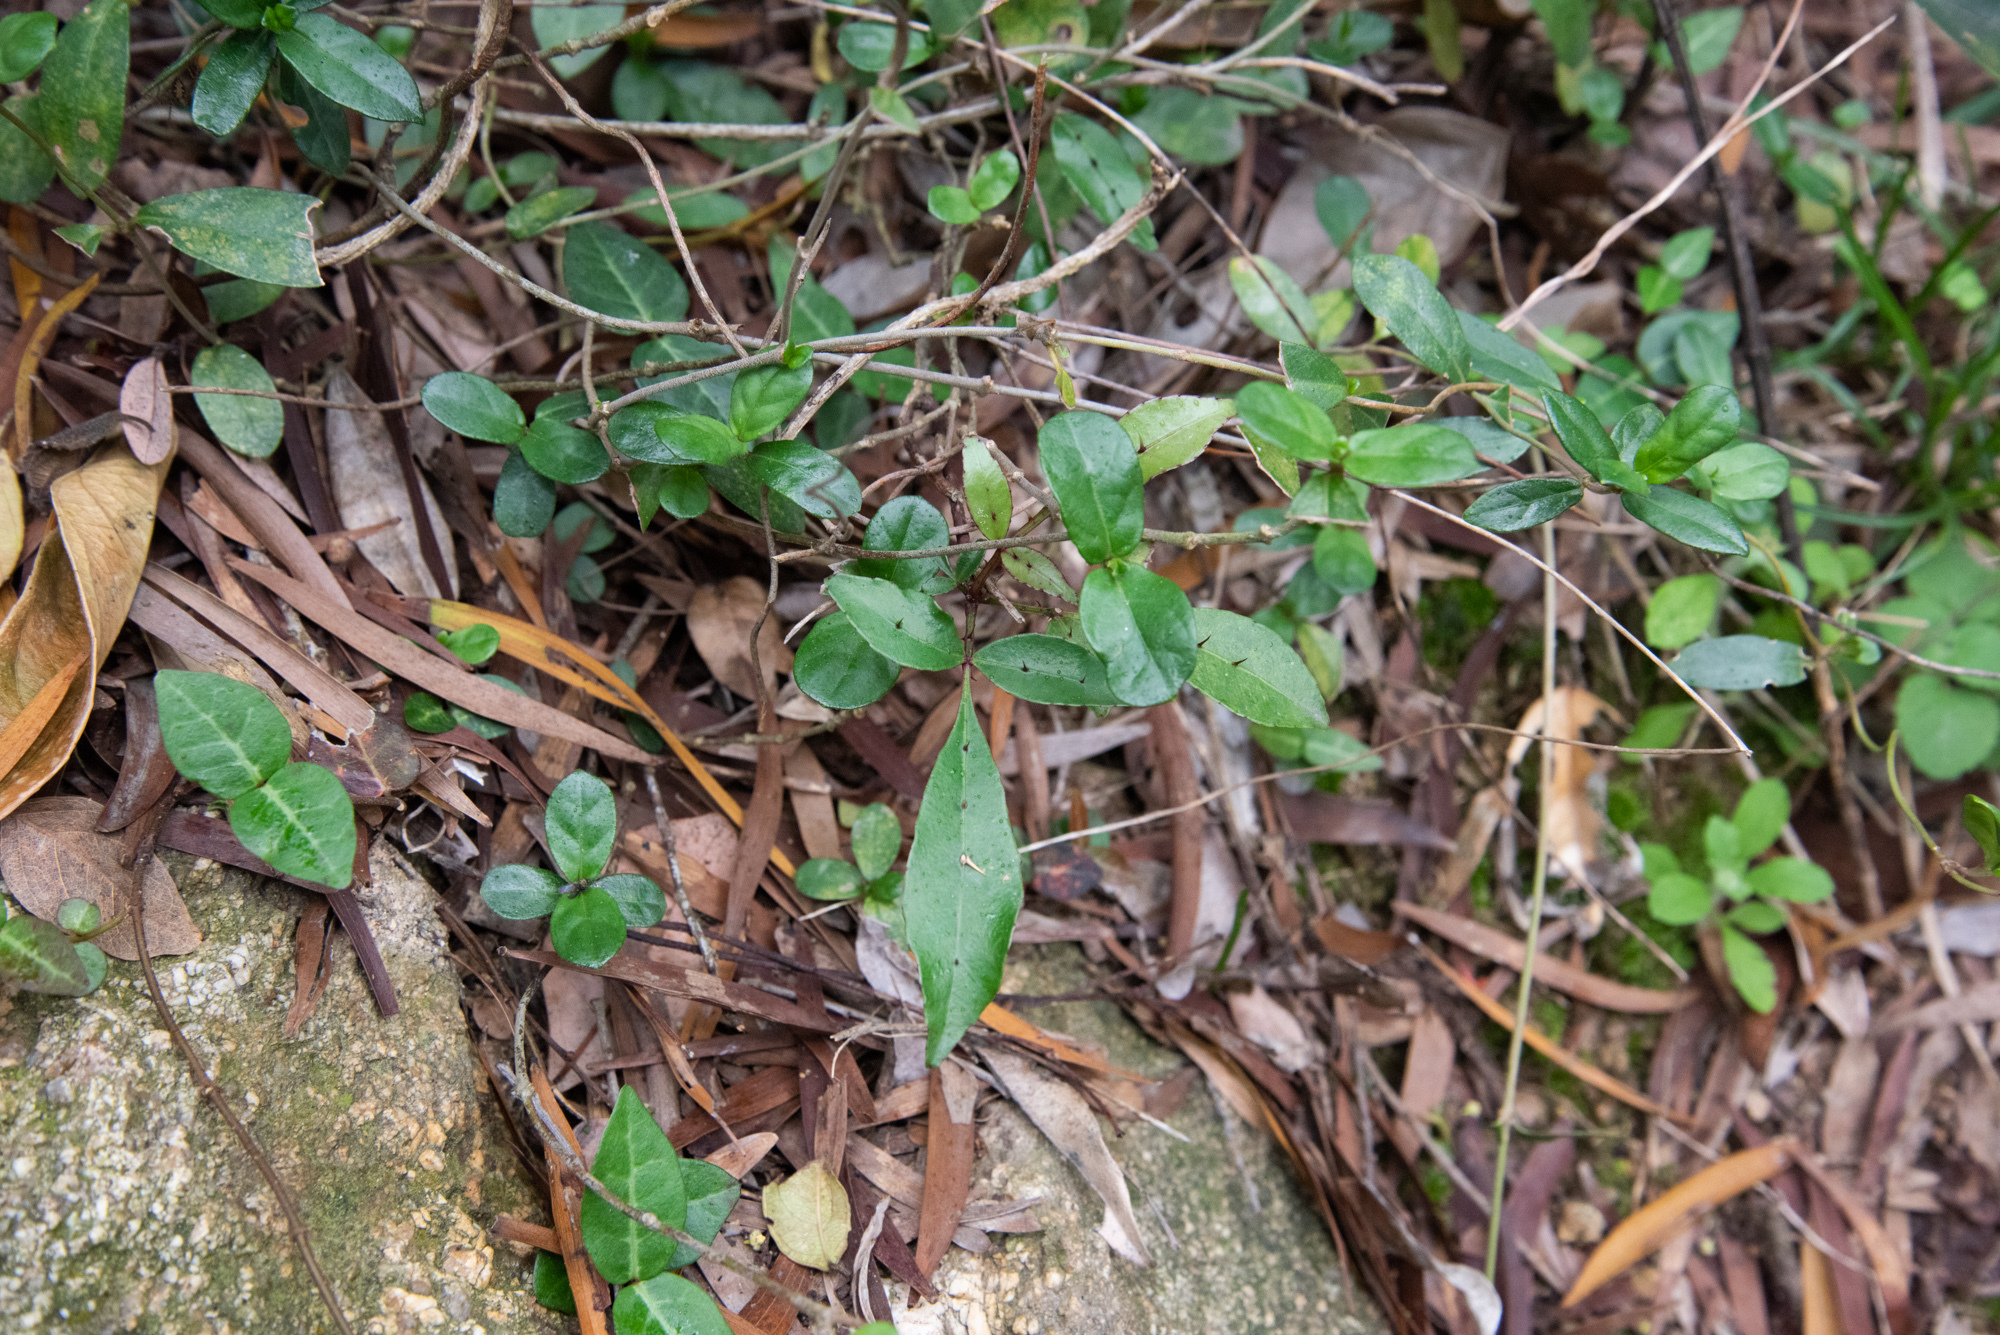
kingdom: Plantae
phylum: Tracheophyta
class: Magnoliopsida
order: Sapindales
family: Rutaceae
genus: Zanthoxylum
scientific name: Zanthoxylum nitidum
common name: Shiny-leaf prickly-ash
